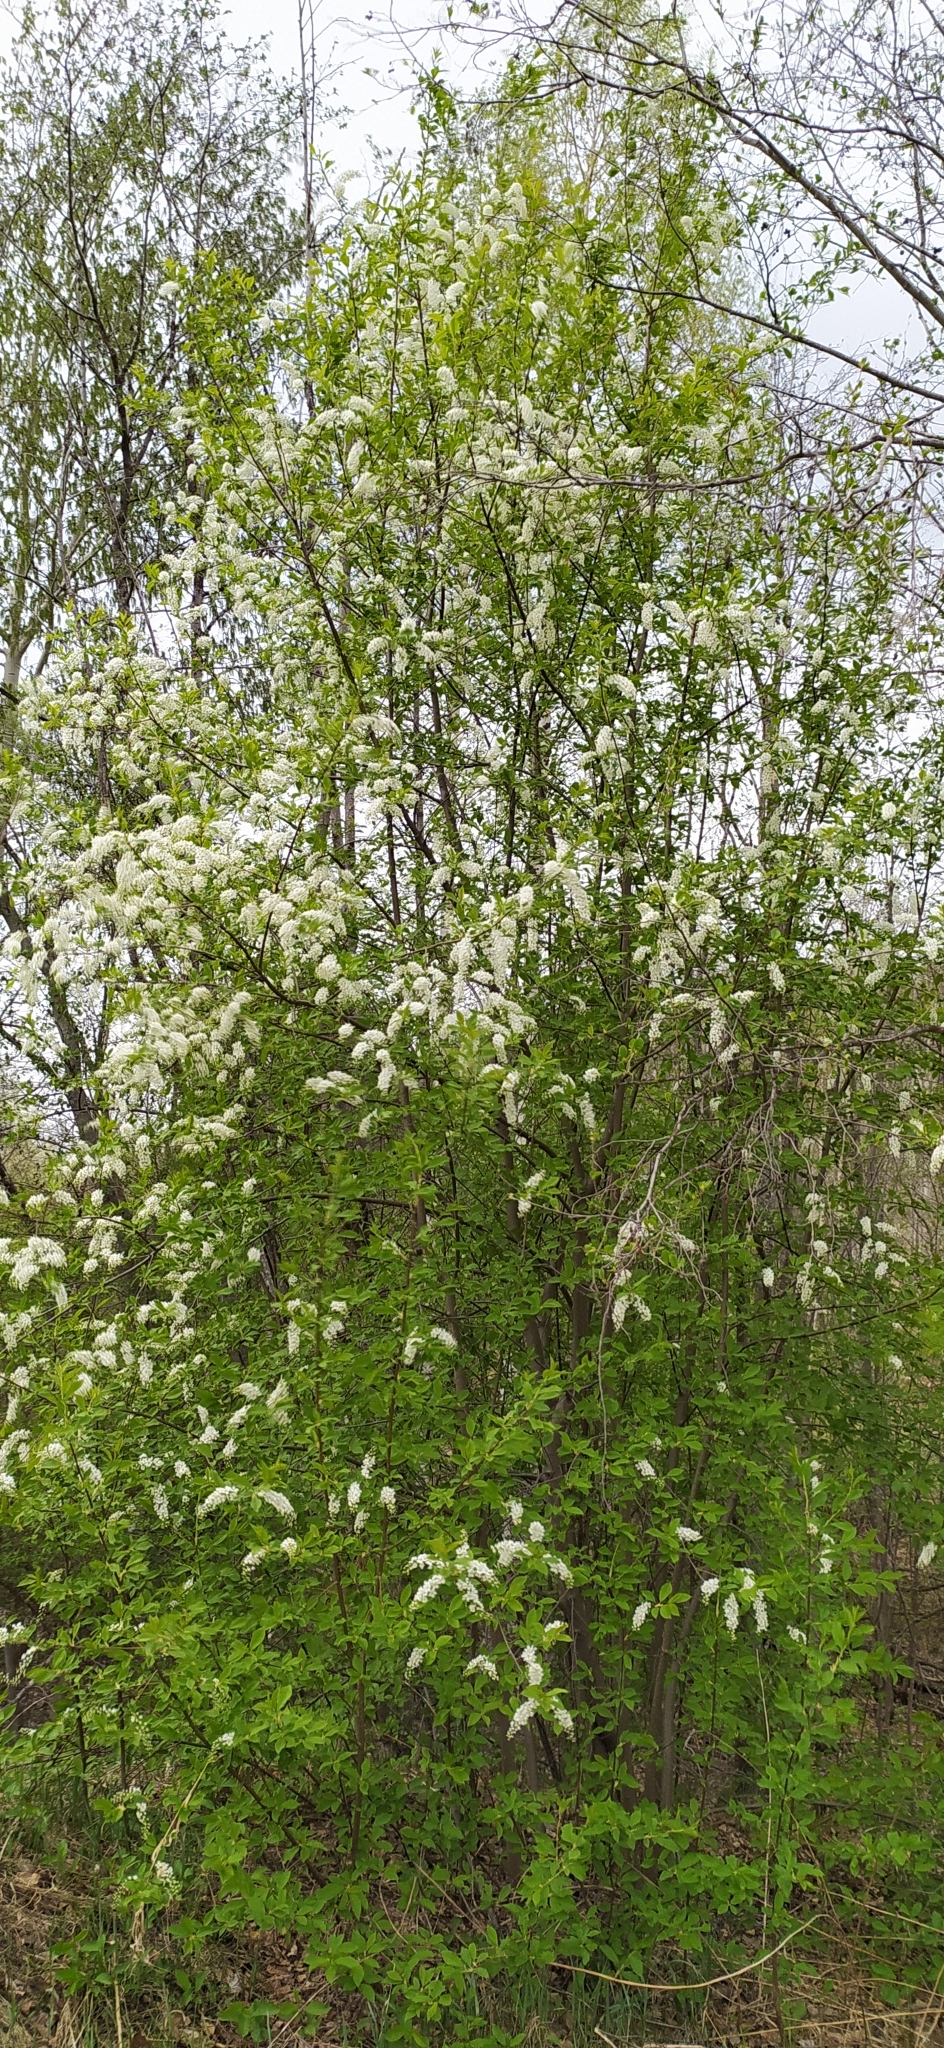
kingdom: Plantae
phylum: Tracheophyta
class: Magnoliopsida
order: Rosales
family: Rosaceae
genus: Prunus
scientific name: Prunus padus
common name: Bird cherry
